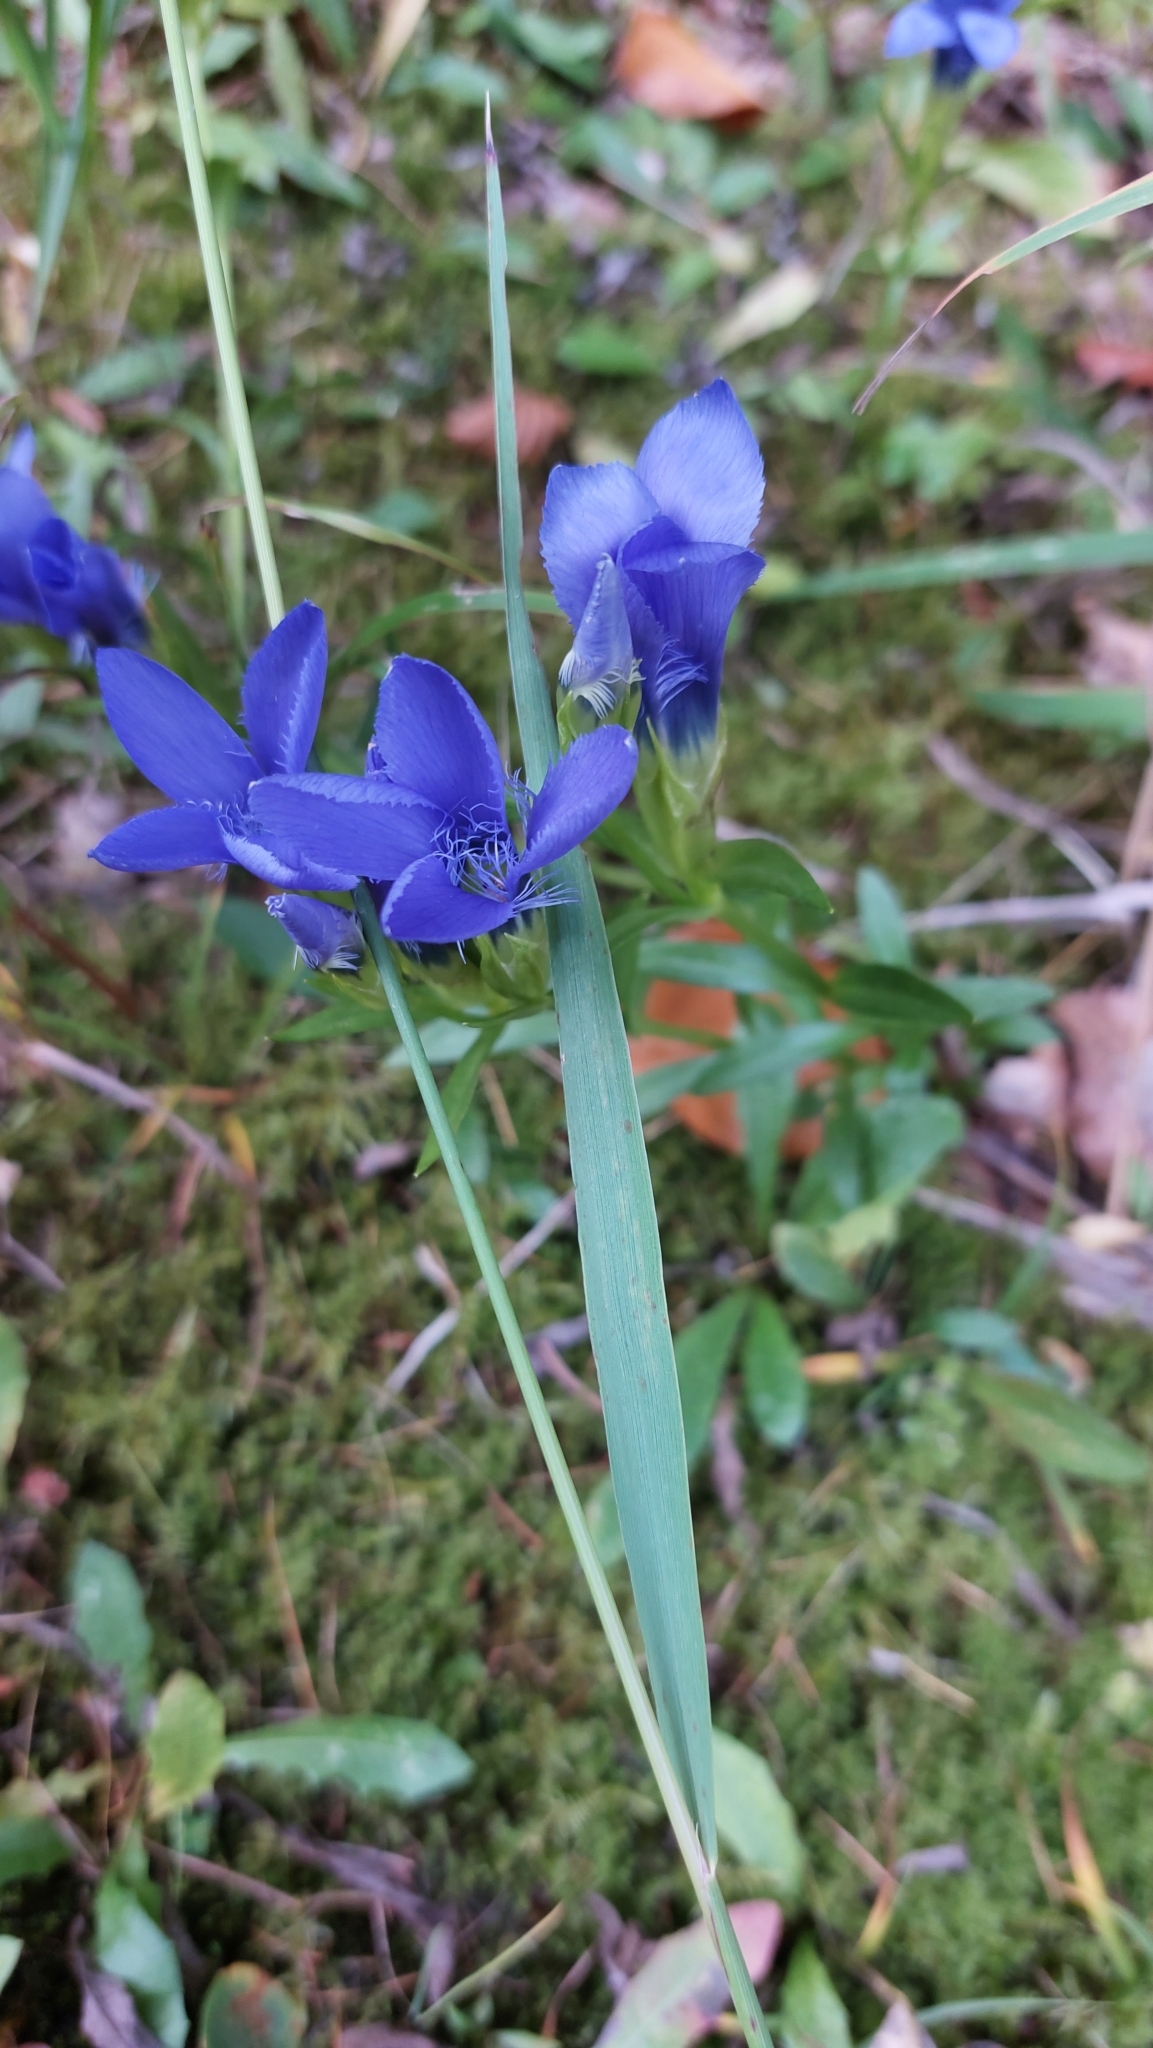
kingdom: Plantae
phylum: Tracheophyta
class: Magnoliopsida
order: Gentianales
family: Gentianaceae
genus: Gentianopsis
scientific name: Gentianopsis ciliata
